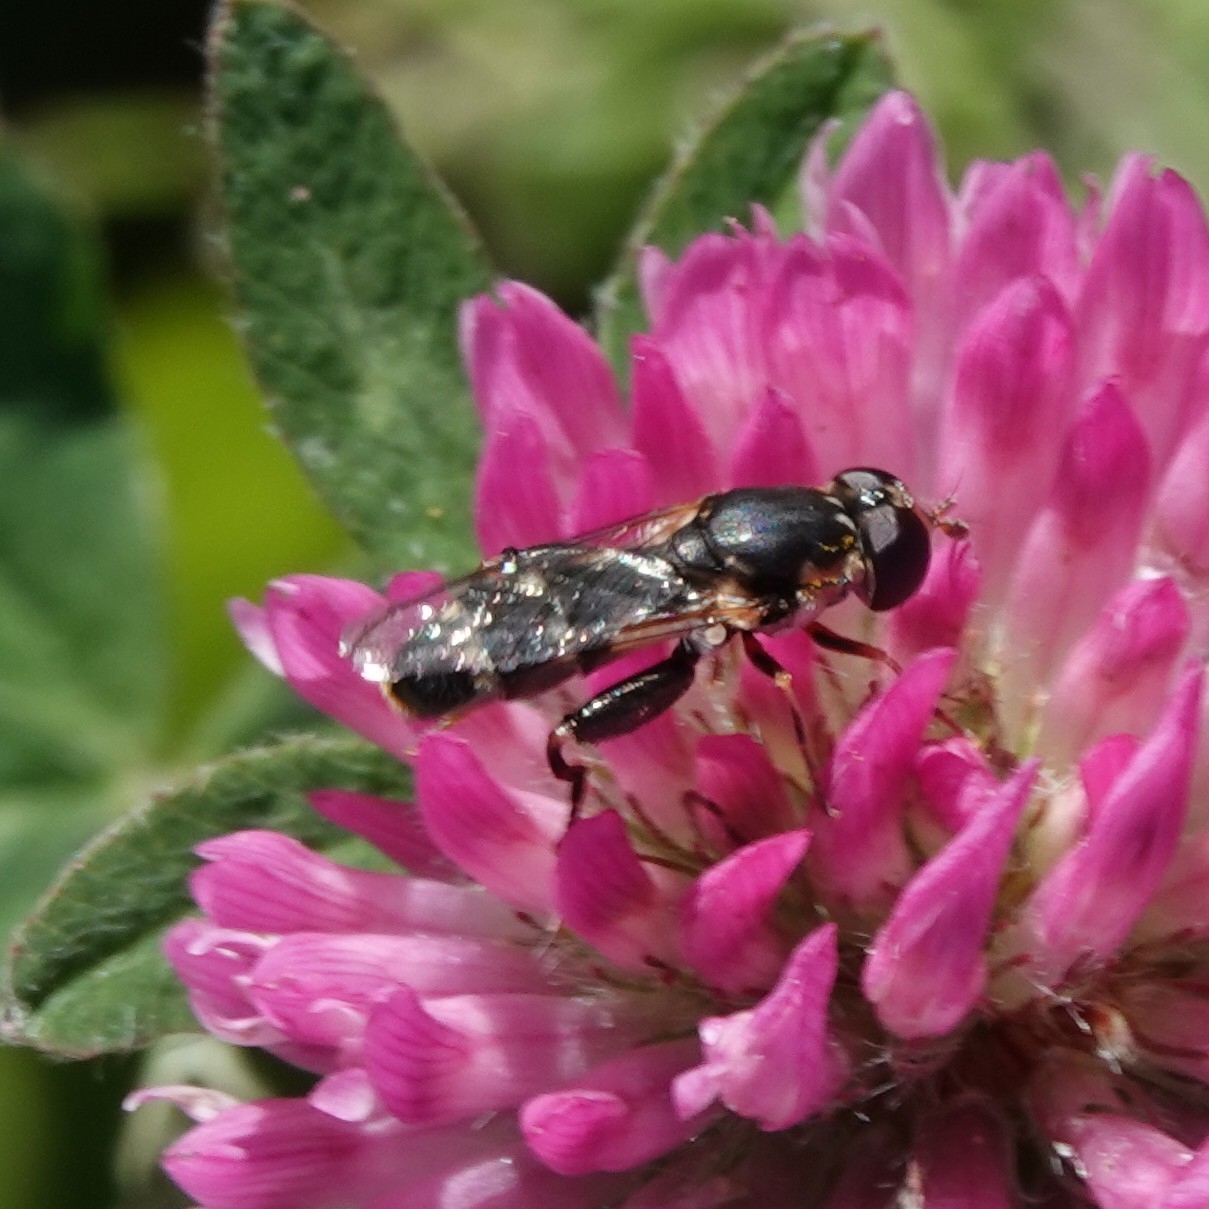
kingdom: Animalia
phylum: Arthropoda
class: Insecta
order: Diptera
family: Syrphidae
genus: Syritta
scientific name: Syritta pipiens
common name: Hover fly
